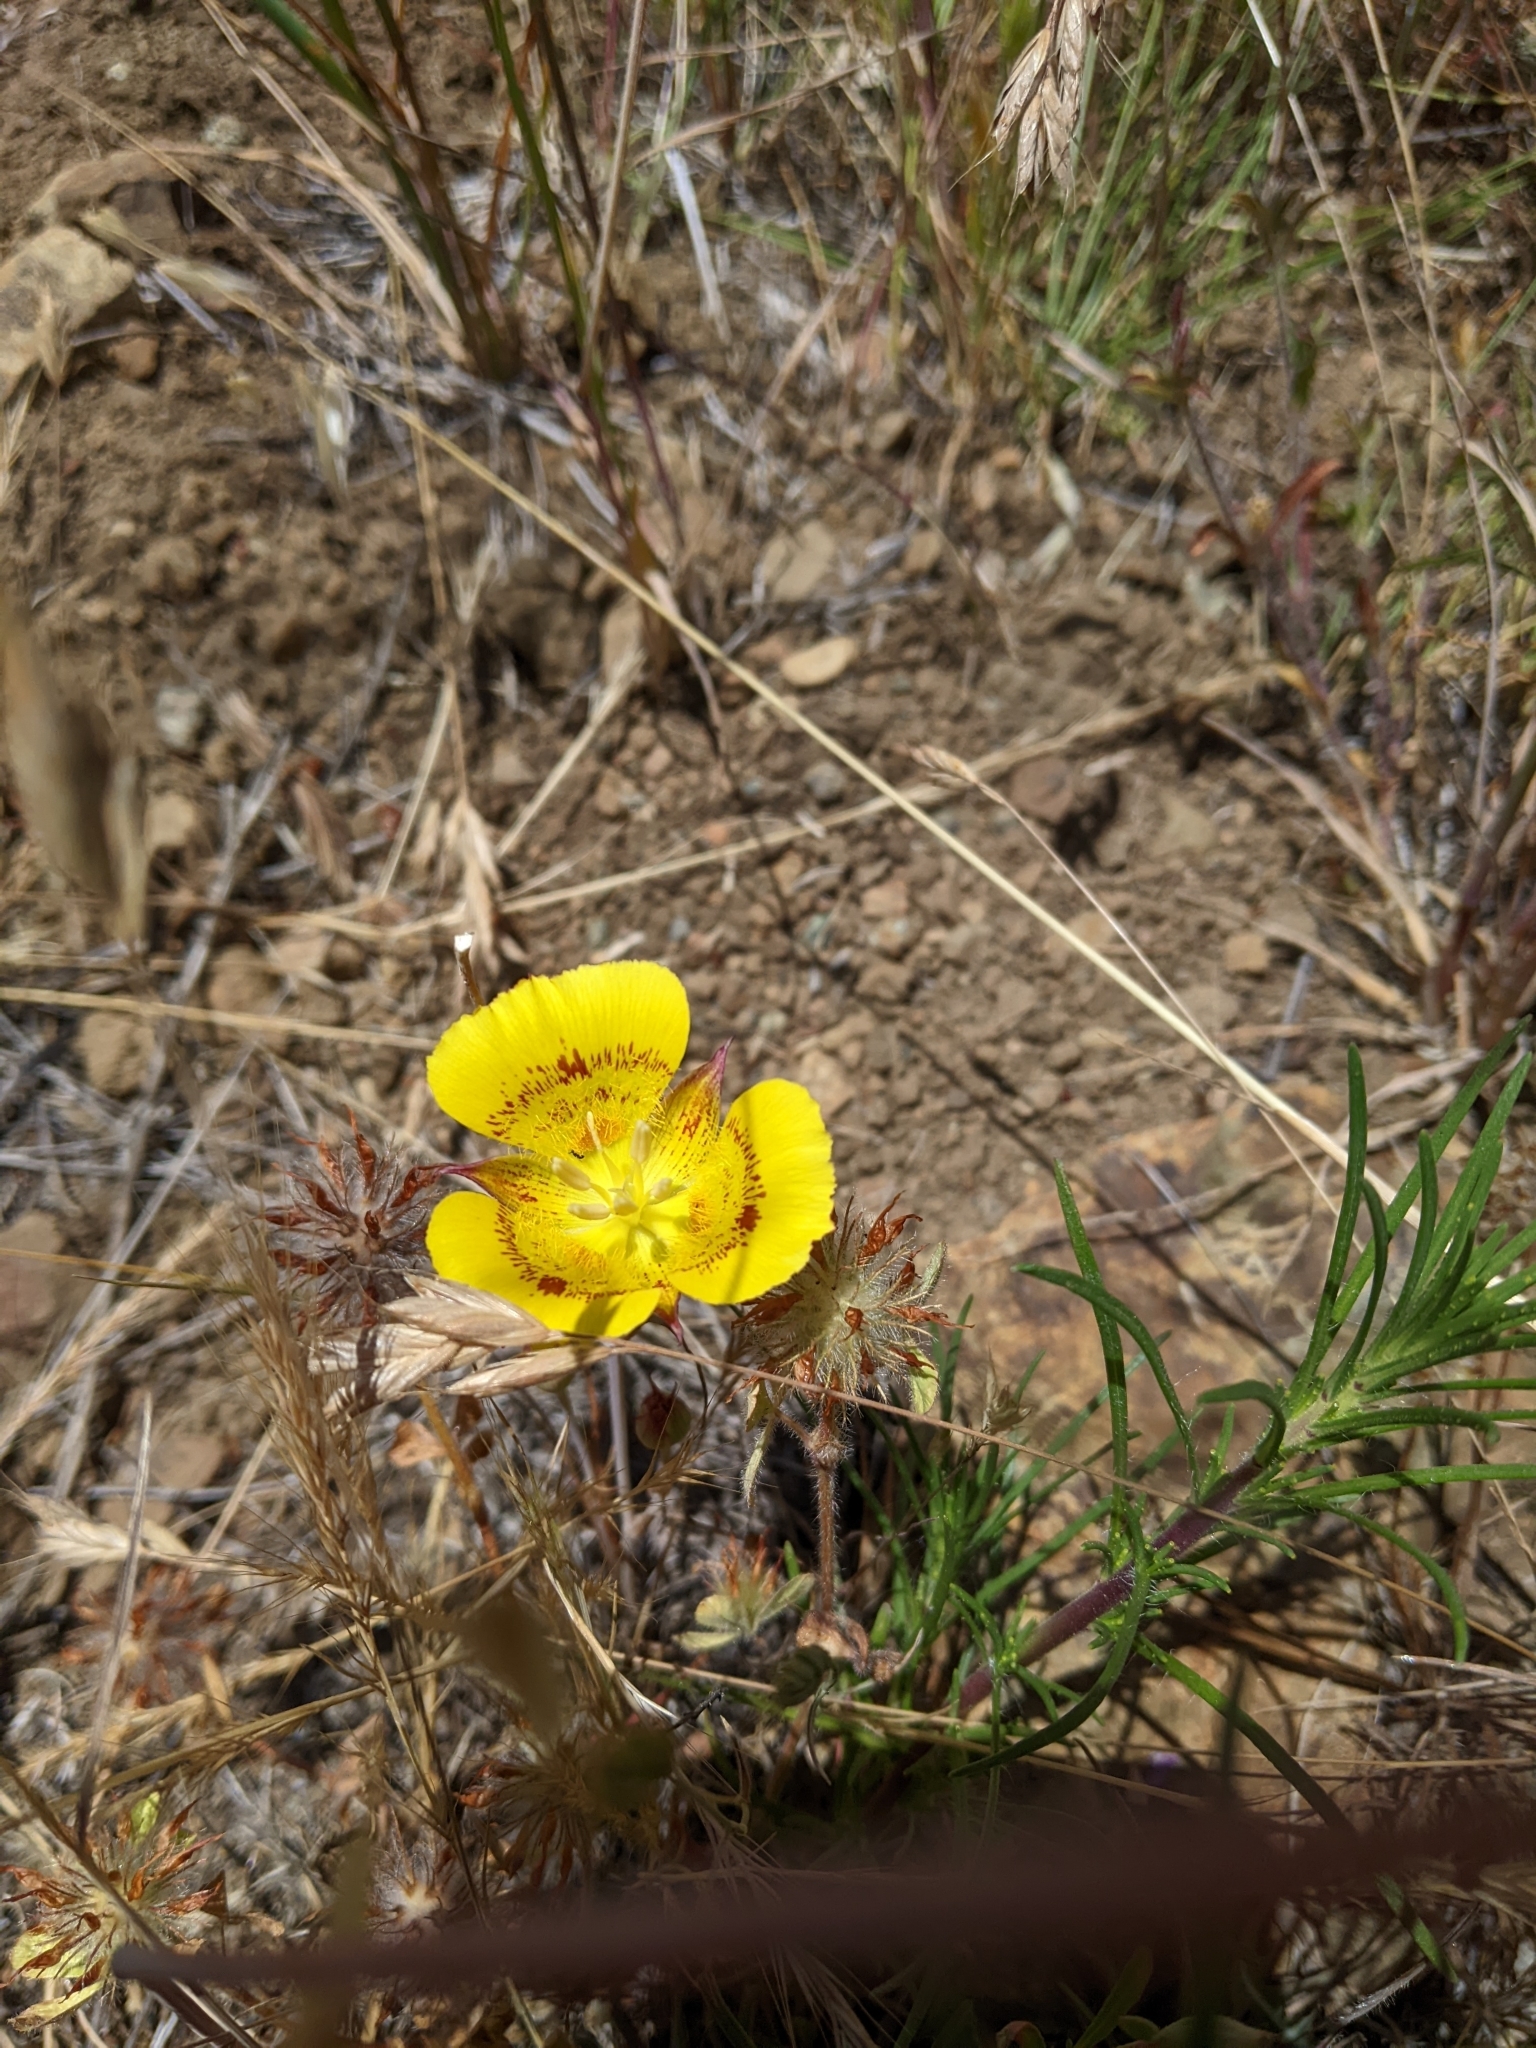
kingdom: Plantae
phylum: Tracheophyta
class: Liliopsida
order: Liliales
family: Liliaceae
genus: Calochortus
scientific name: Calochortus luteus
